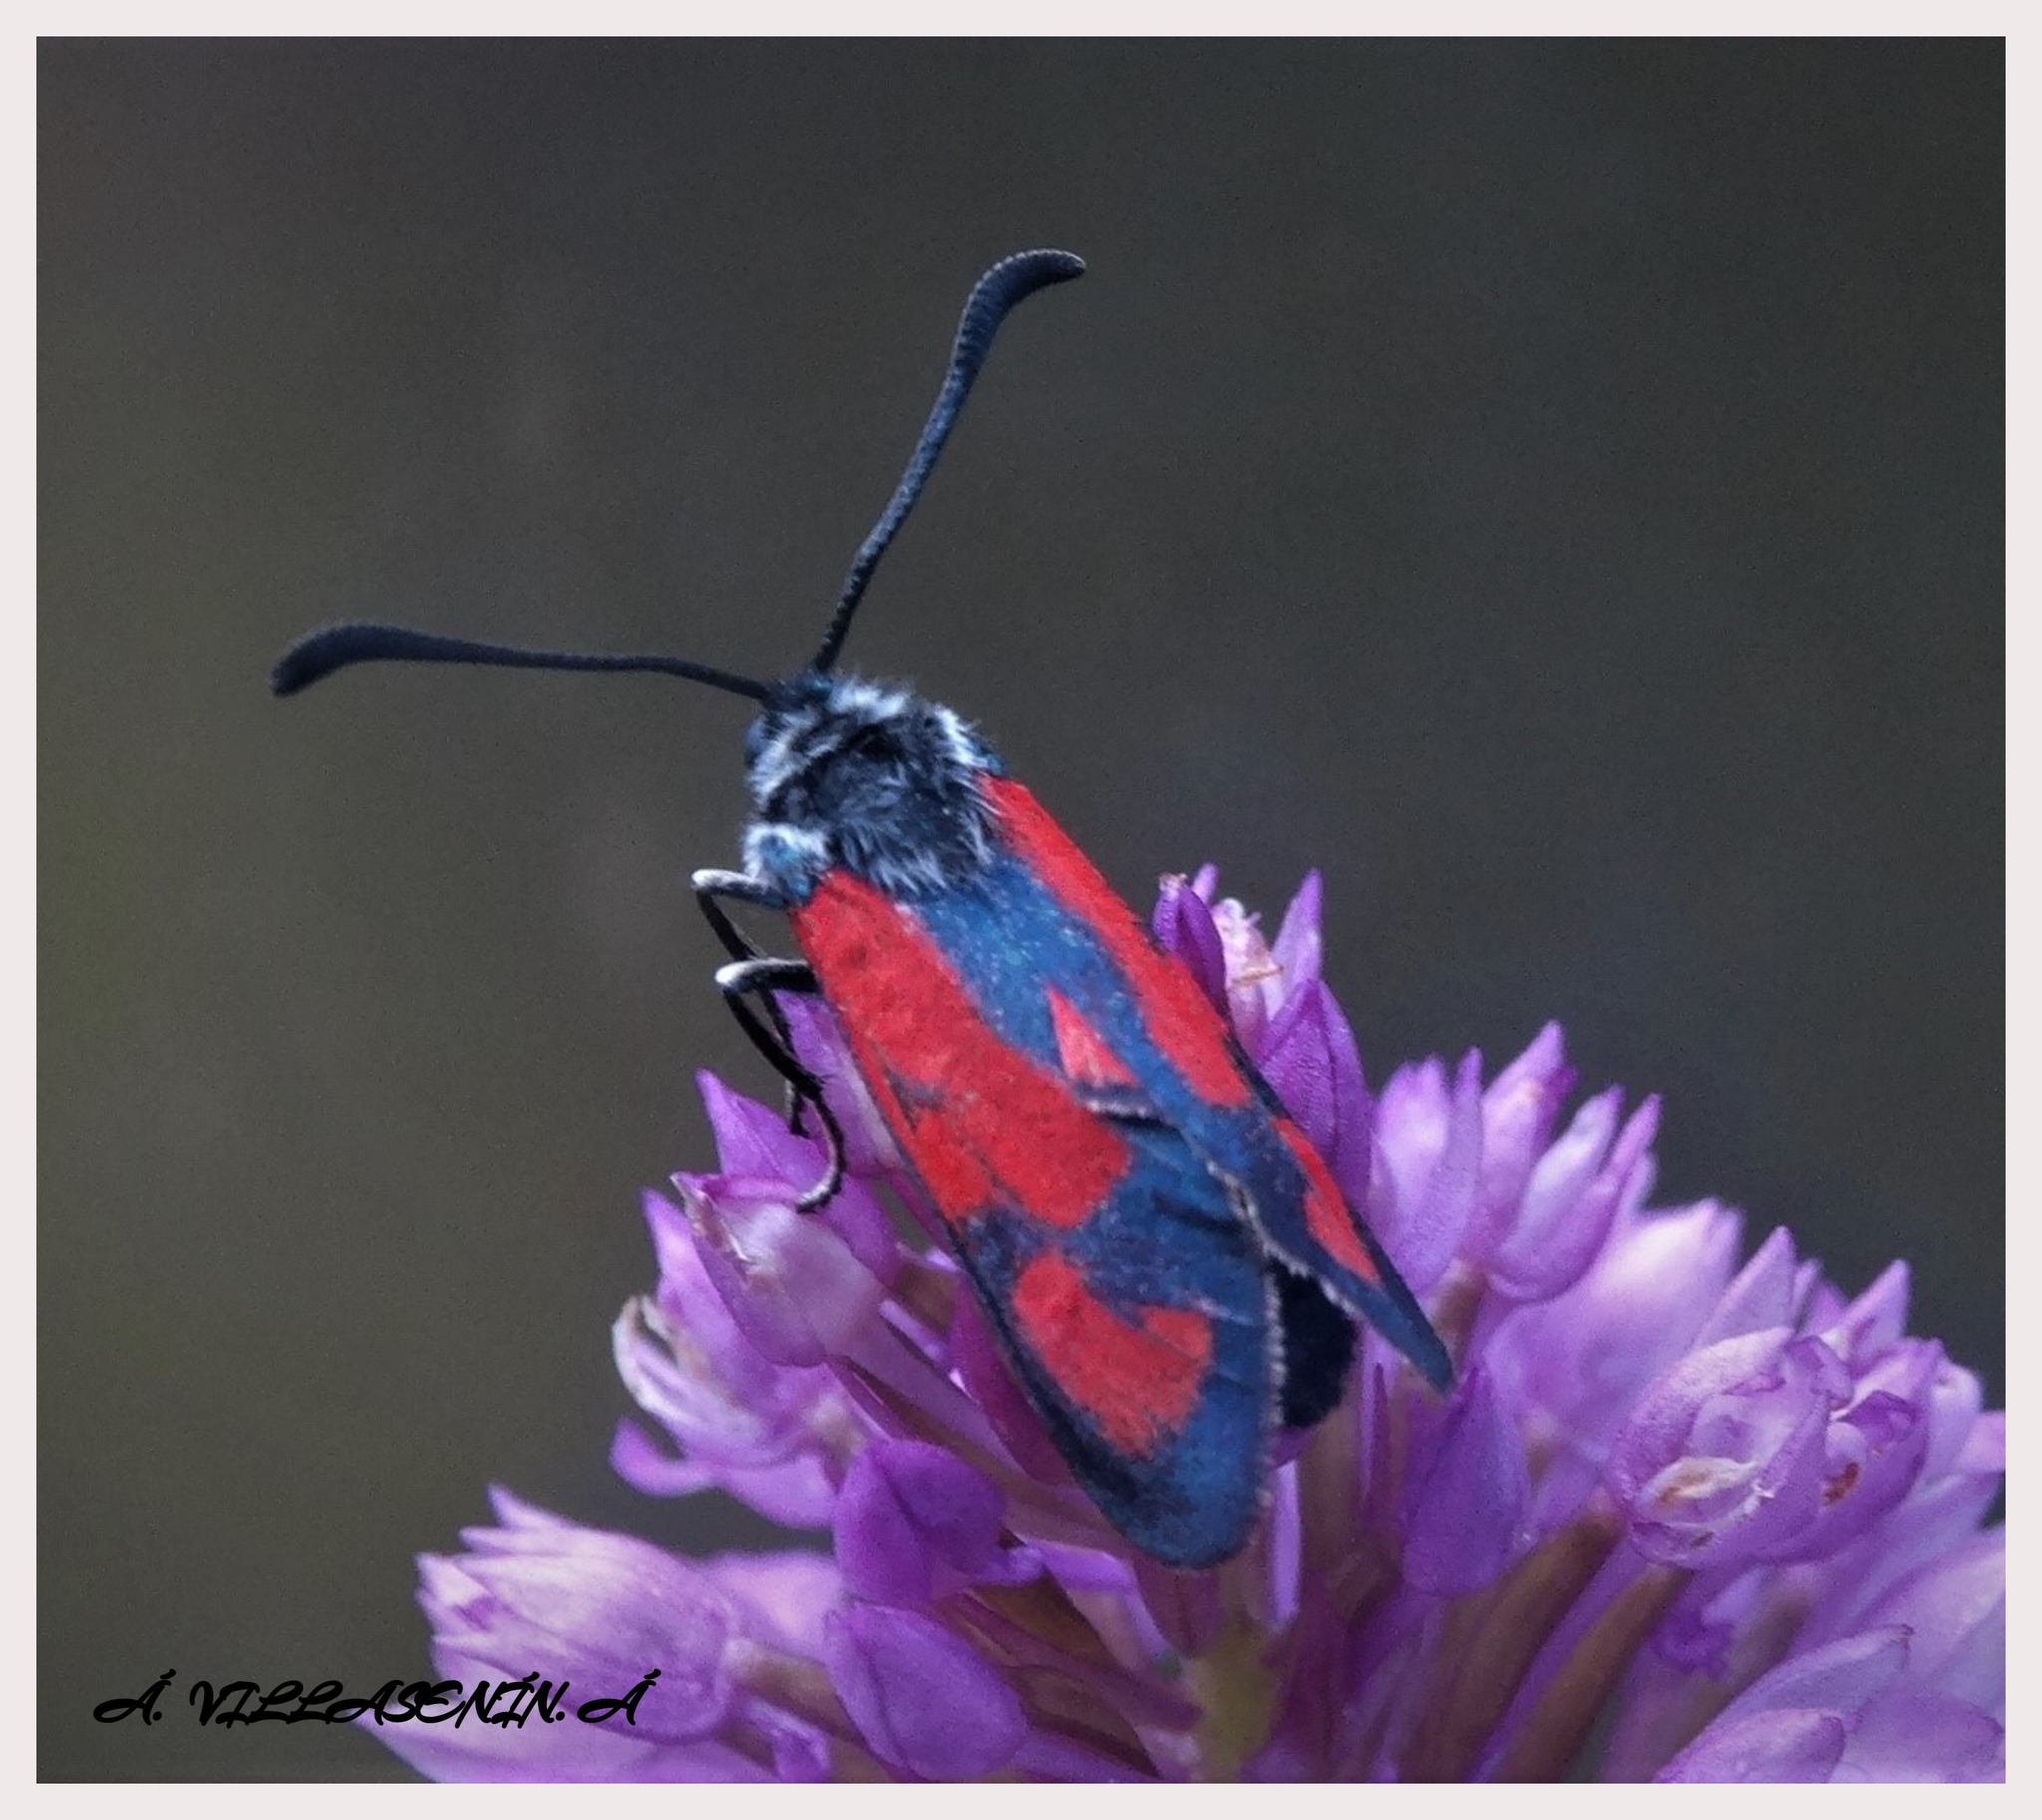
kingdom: Animalia
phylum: Arthropoda
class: Insecta
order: Lepidoptera
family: Zygaenidae
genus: Zygaena
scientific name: Zygaena sarpedon
